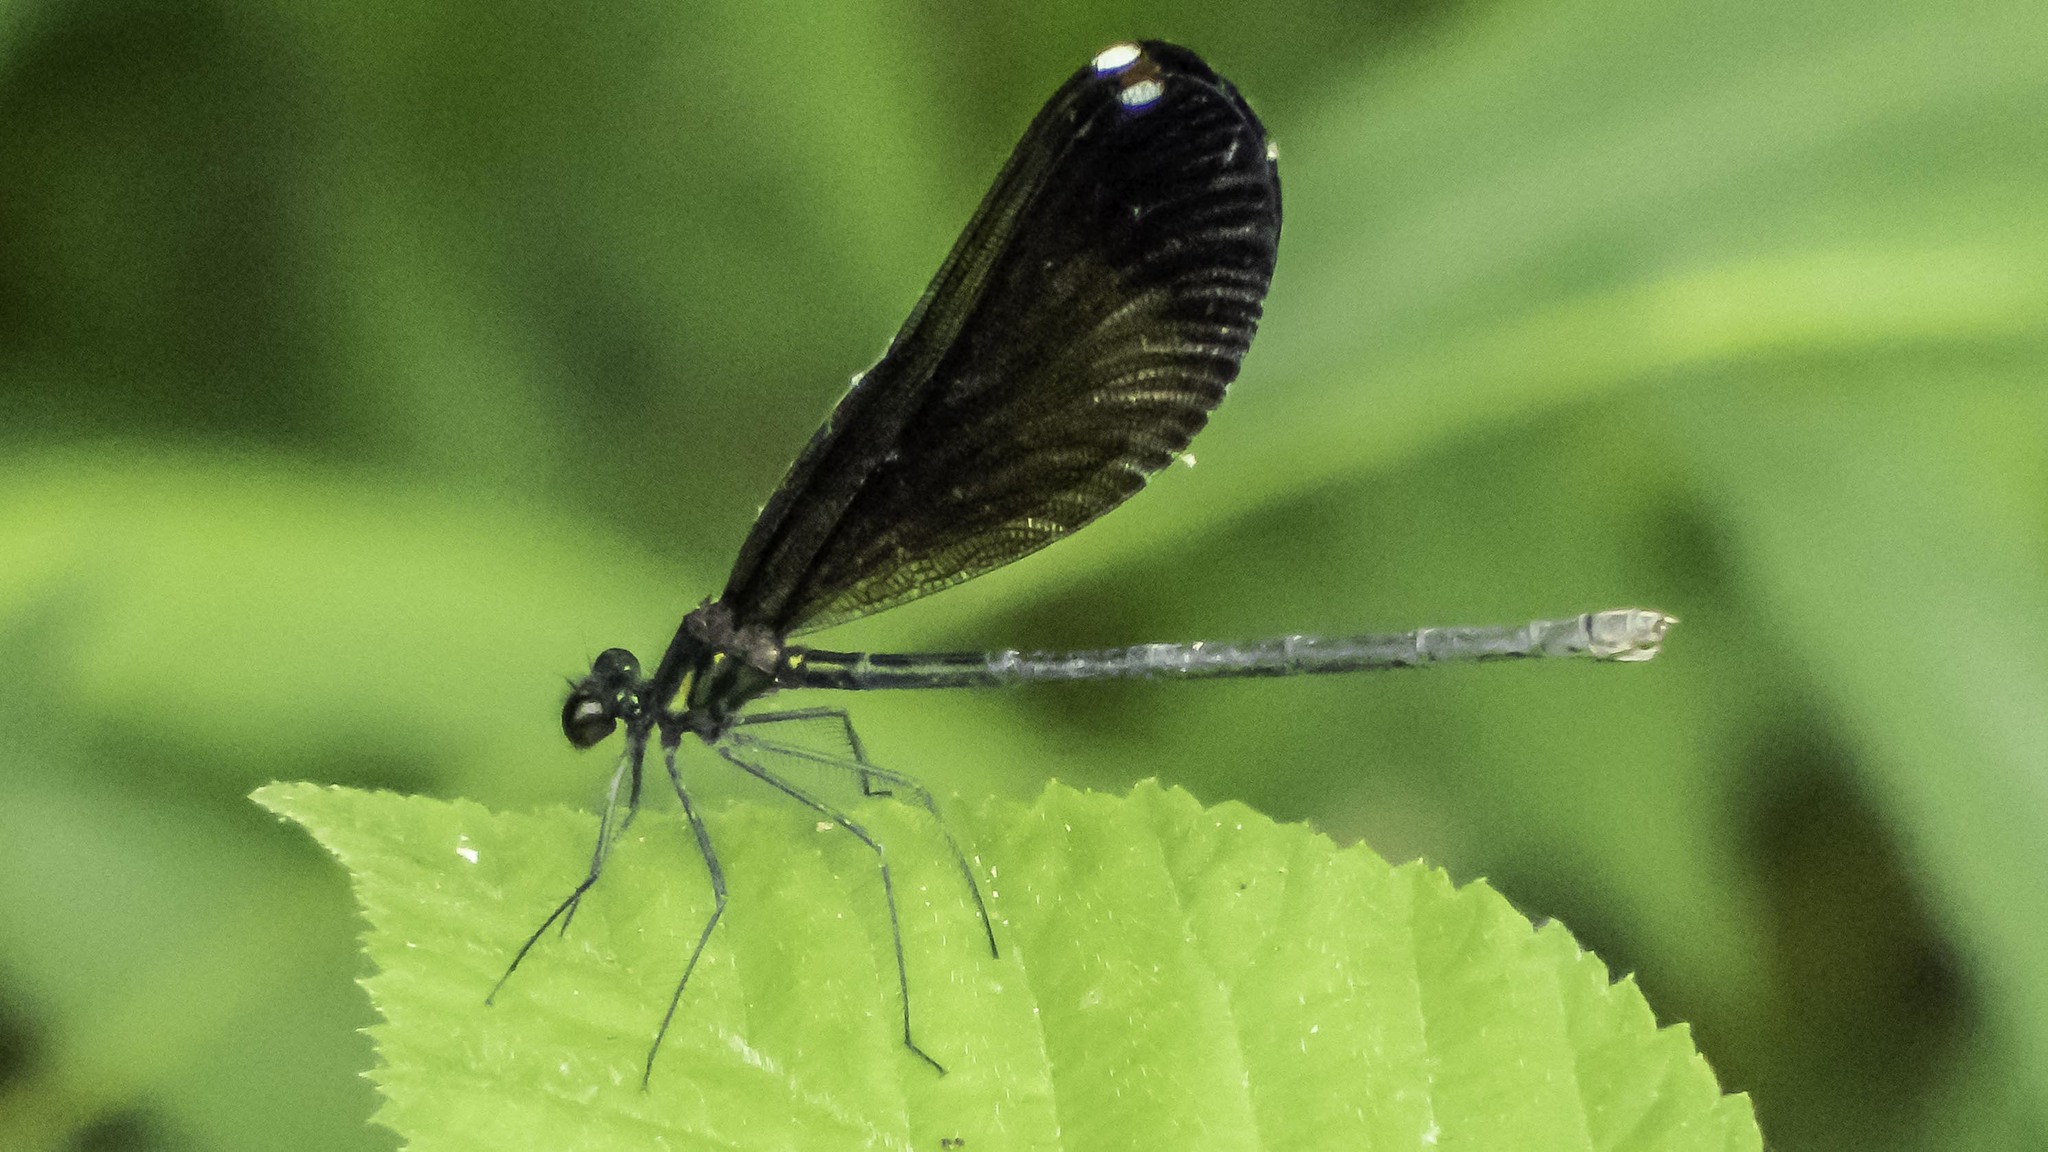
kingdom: Animalia
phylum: Arthropoda
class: Insecta
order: Odonata
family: Calopterygidae
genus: Calopteryx
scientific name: Calopteryx maculata
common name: Ebony jewelwing
